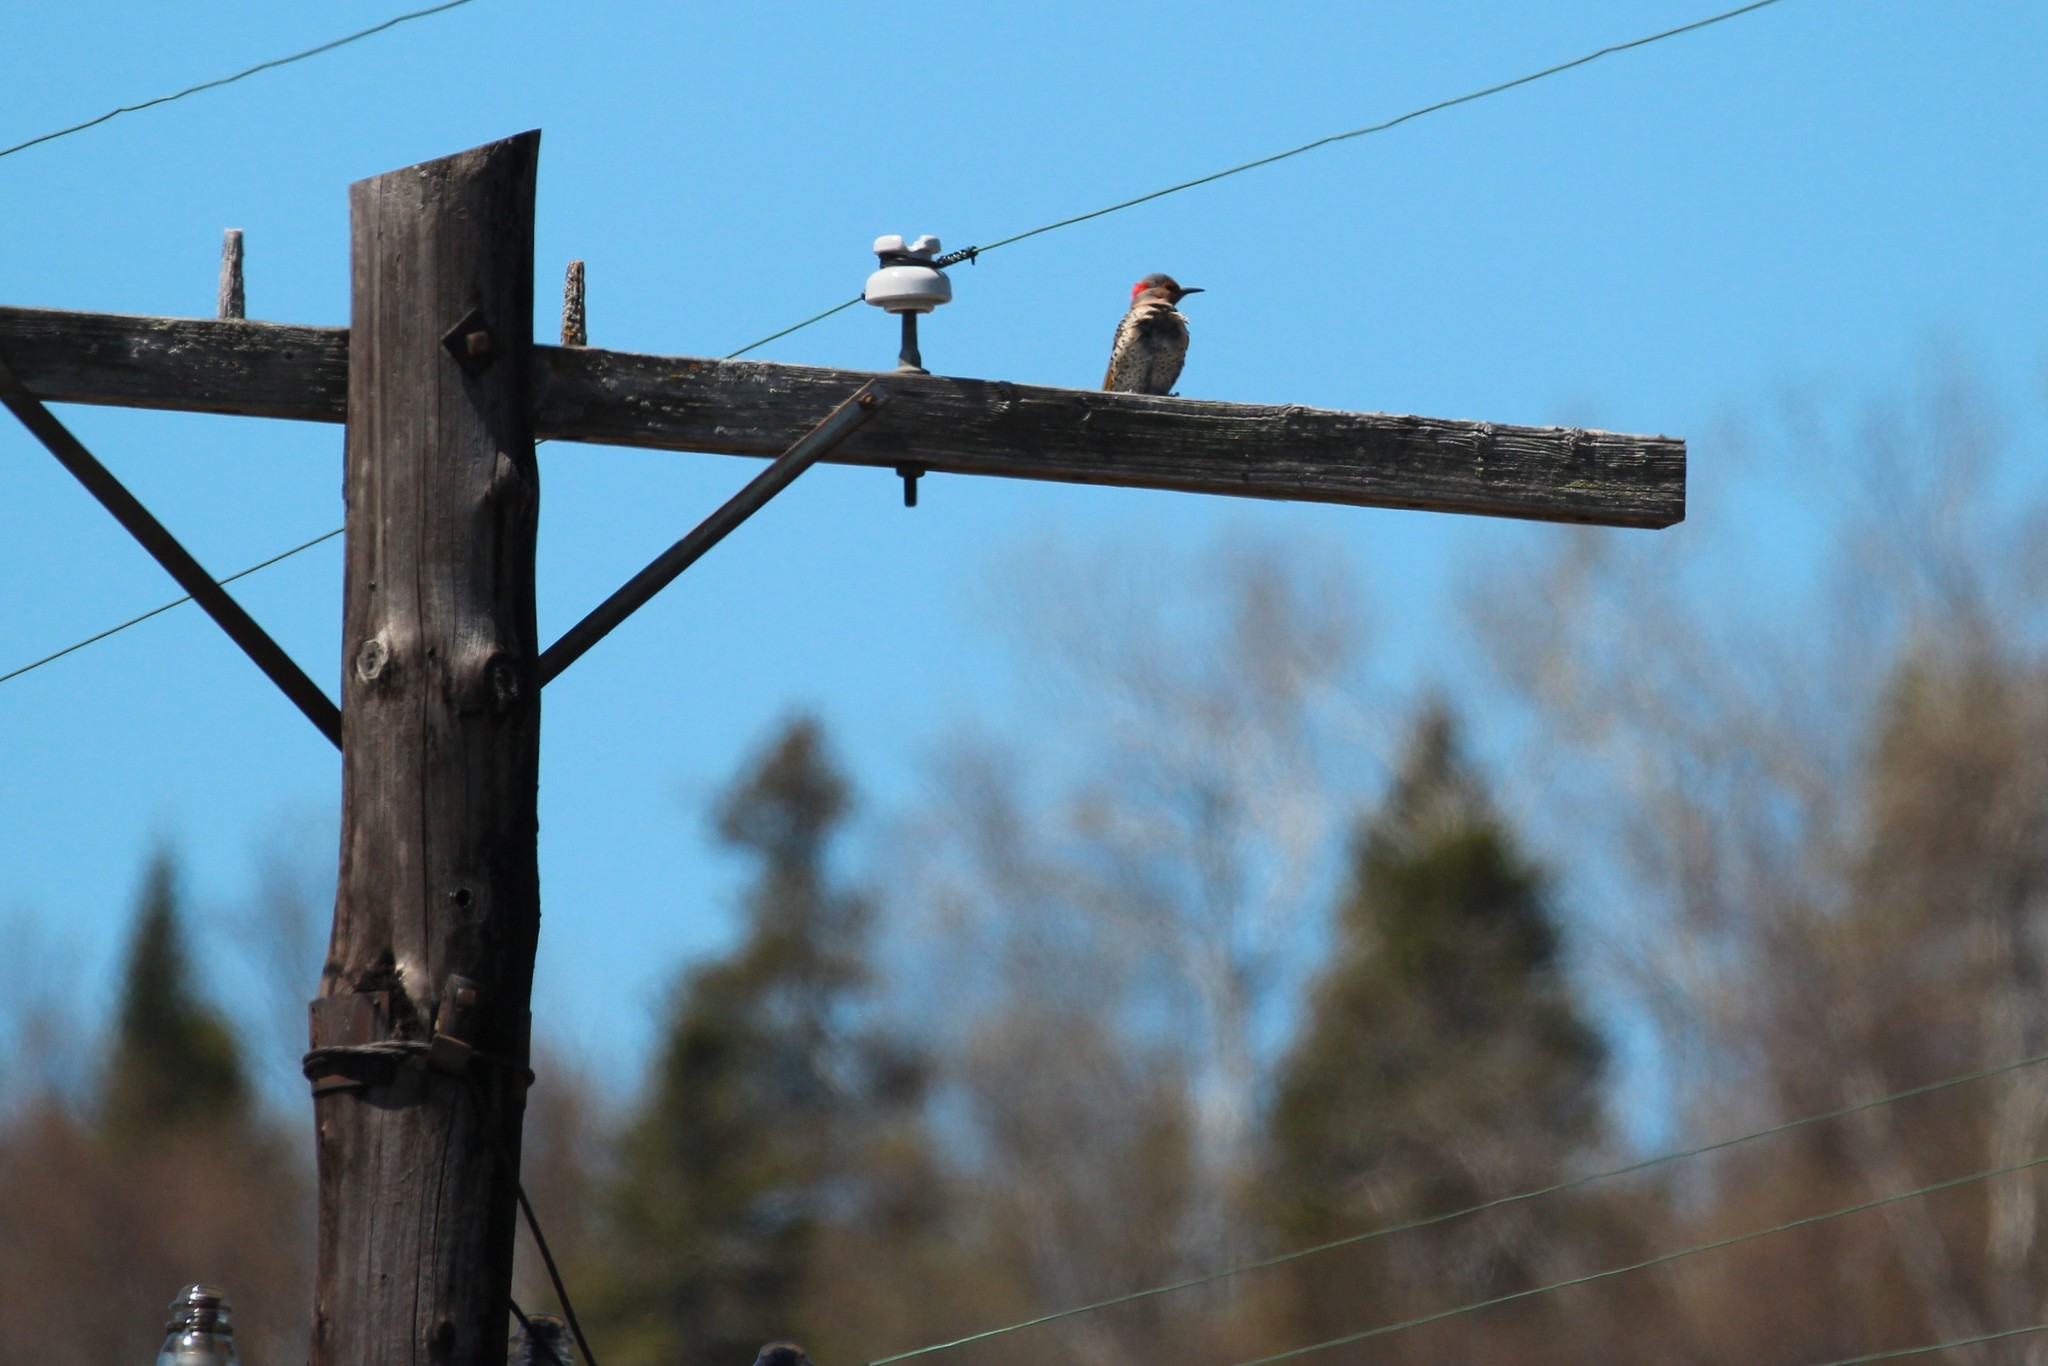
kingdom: Animalia
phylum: Chordata
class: Aves
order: Piciformes
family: Picidae
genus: Colaptes
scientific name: Colaptes auratus
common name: Northern flicker
